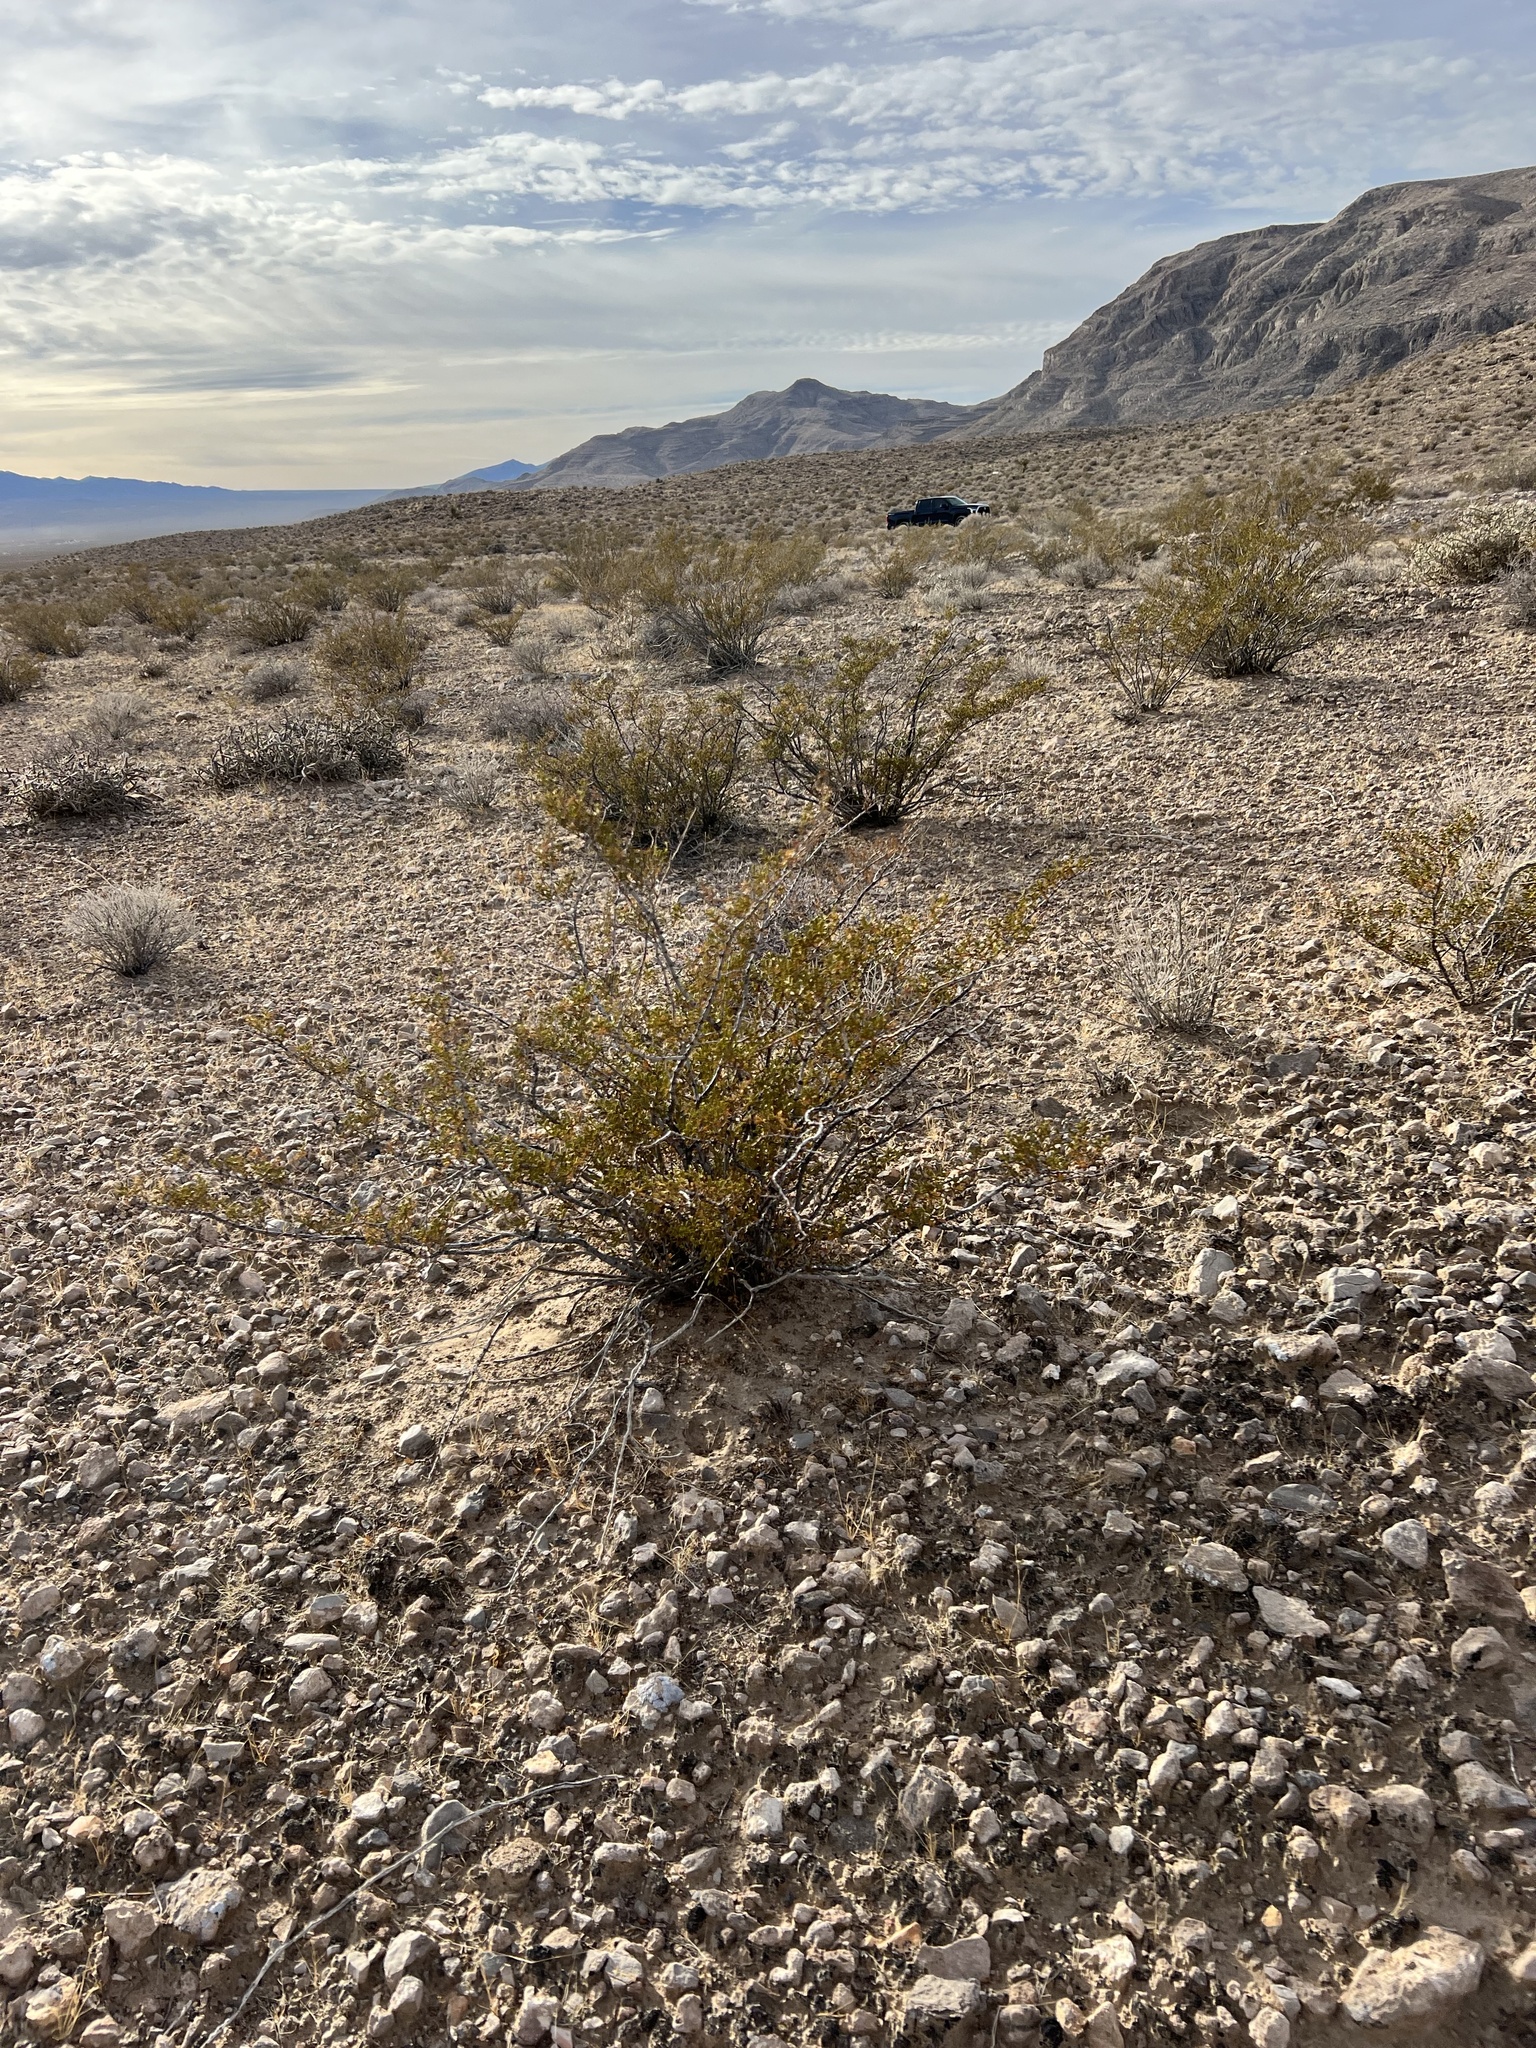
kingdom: Plantae
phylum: Tracheophyta
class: Magnoliopsida
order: Zygophyllales
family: Zygophyllaceae
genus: Larrea
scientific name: Larrea tridentata
